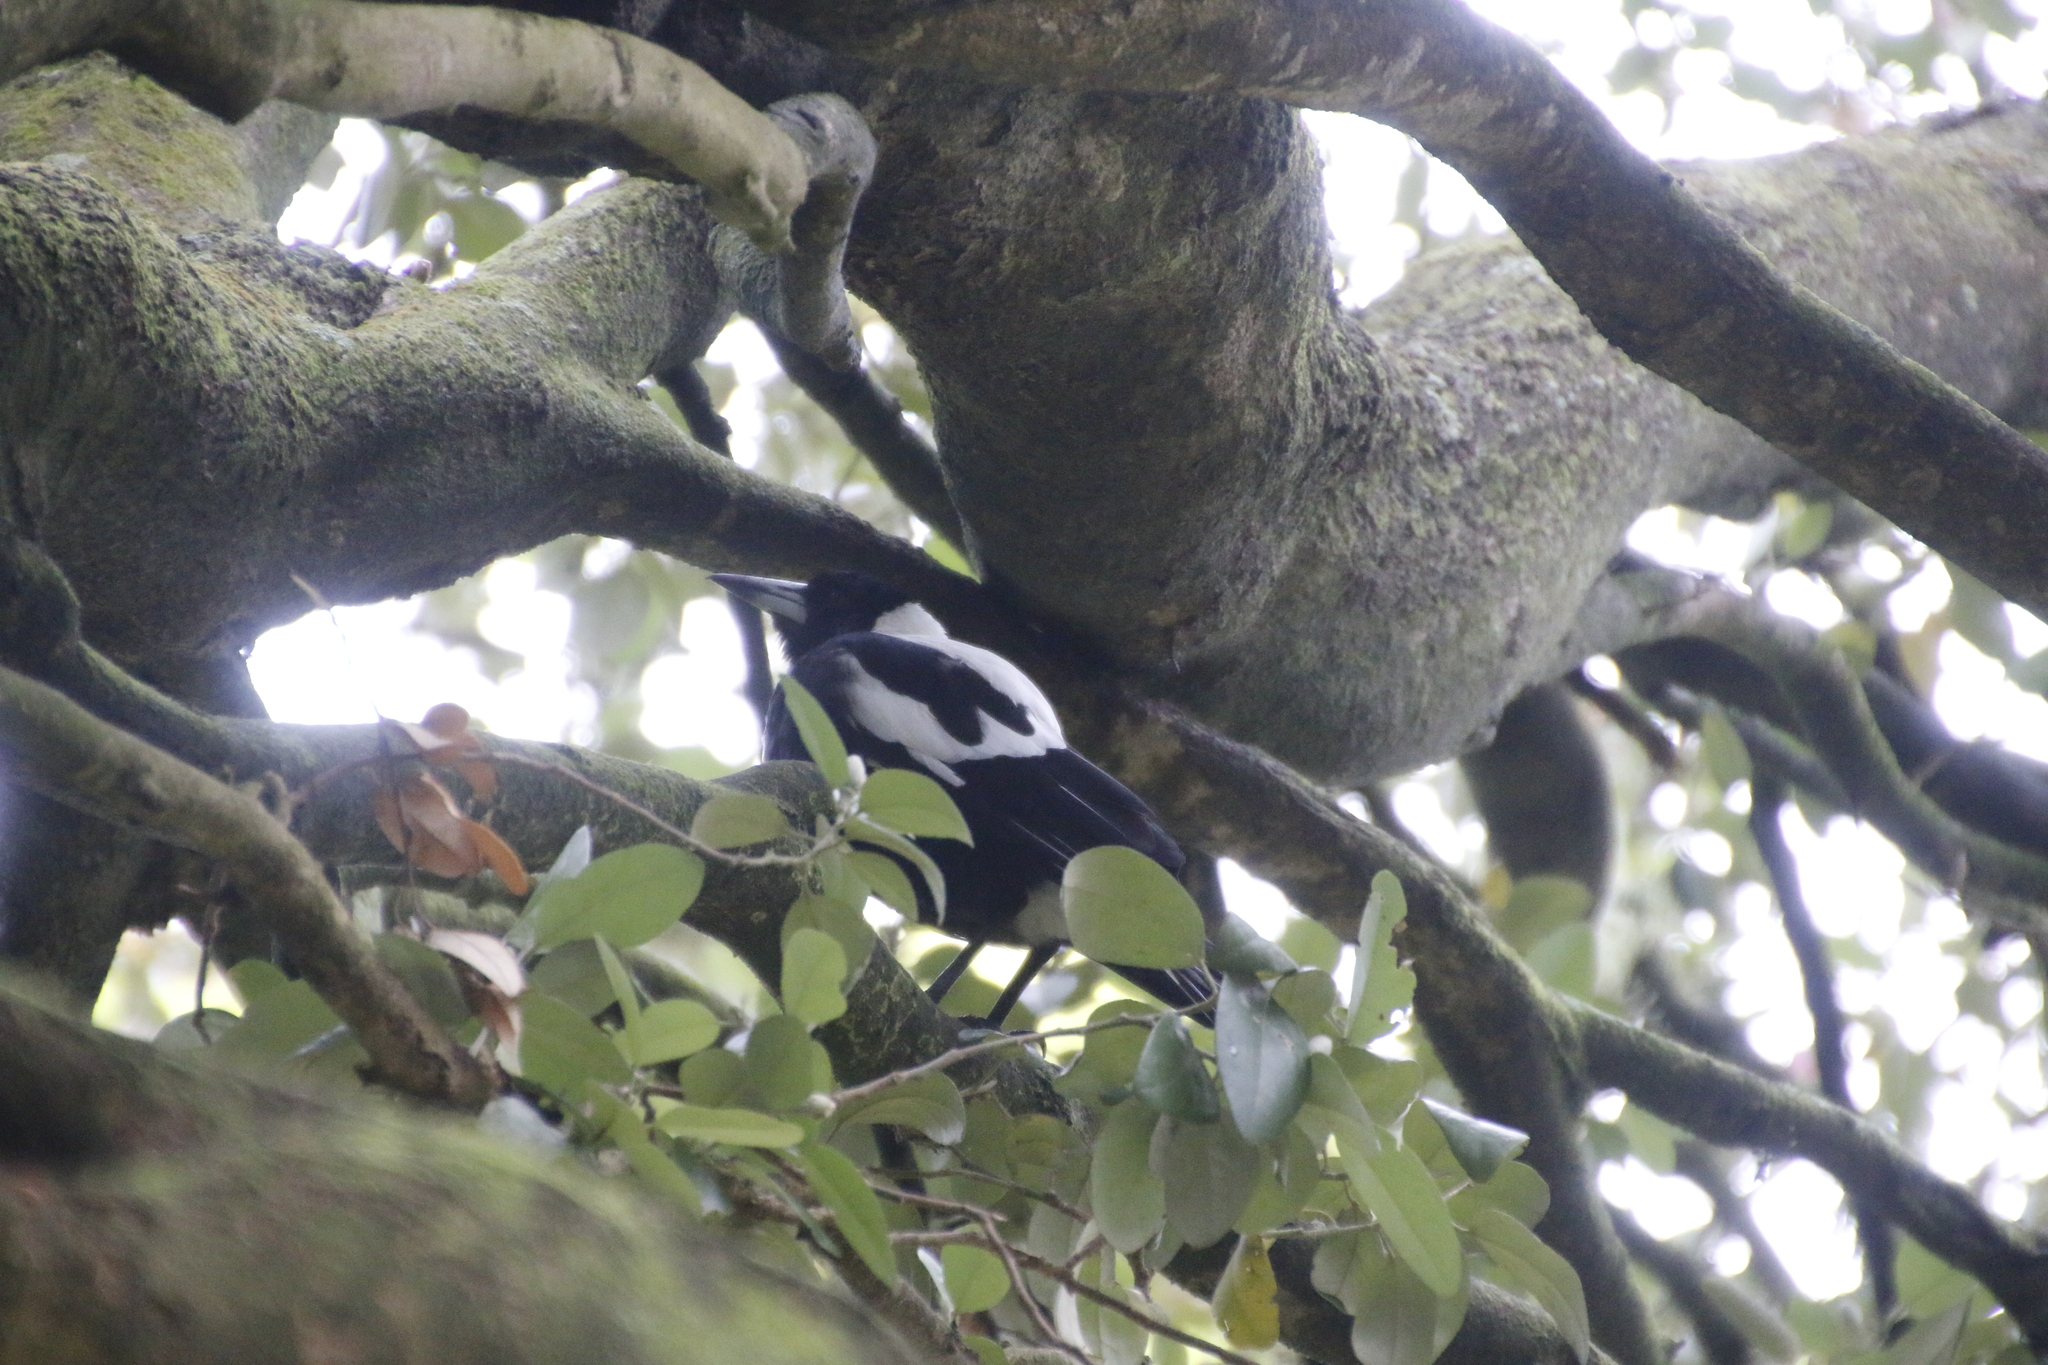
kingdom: Animalia
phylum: Chordata
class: Aves
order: Passeriformes
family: Cracticidae
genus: Gymnorhina
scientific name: Gymnorhina tibicen
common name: Australian magpie
